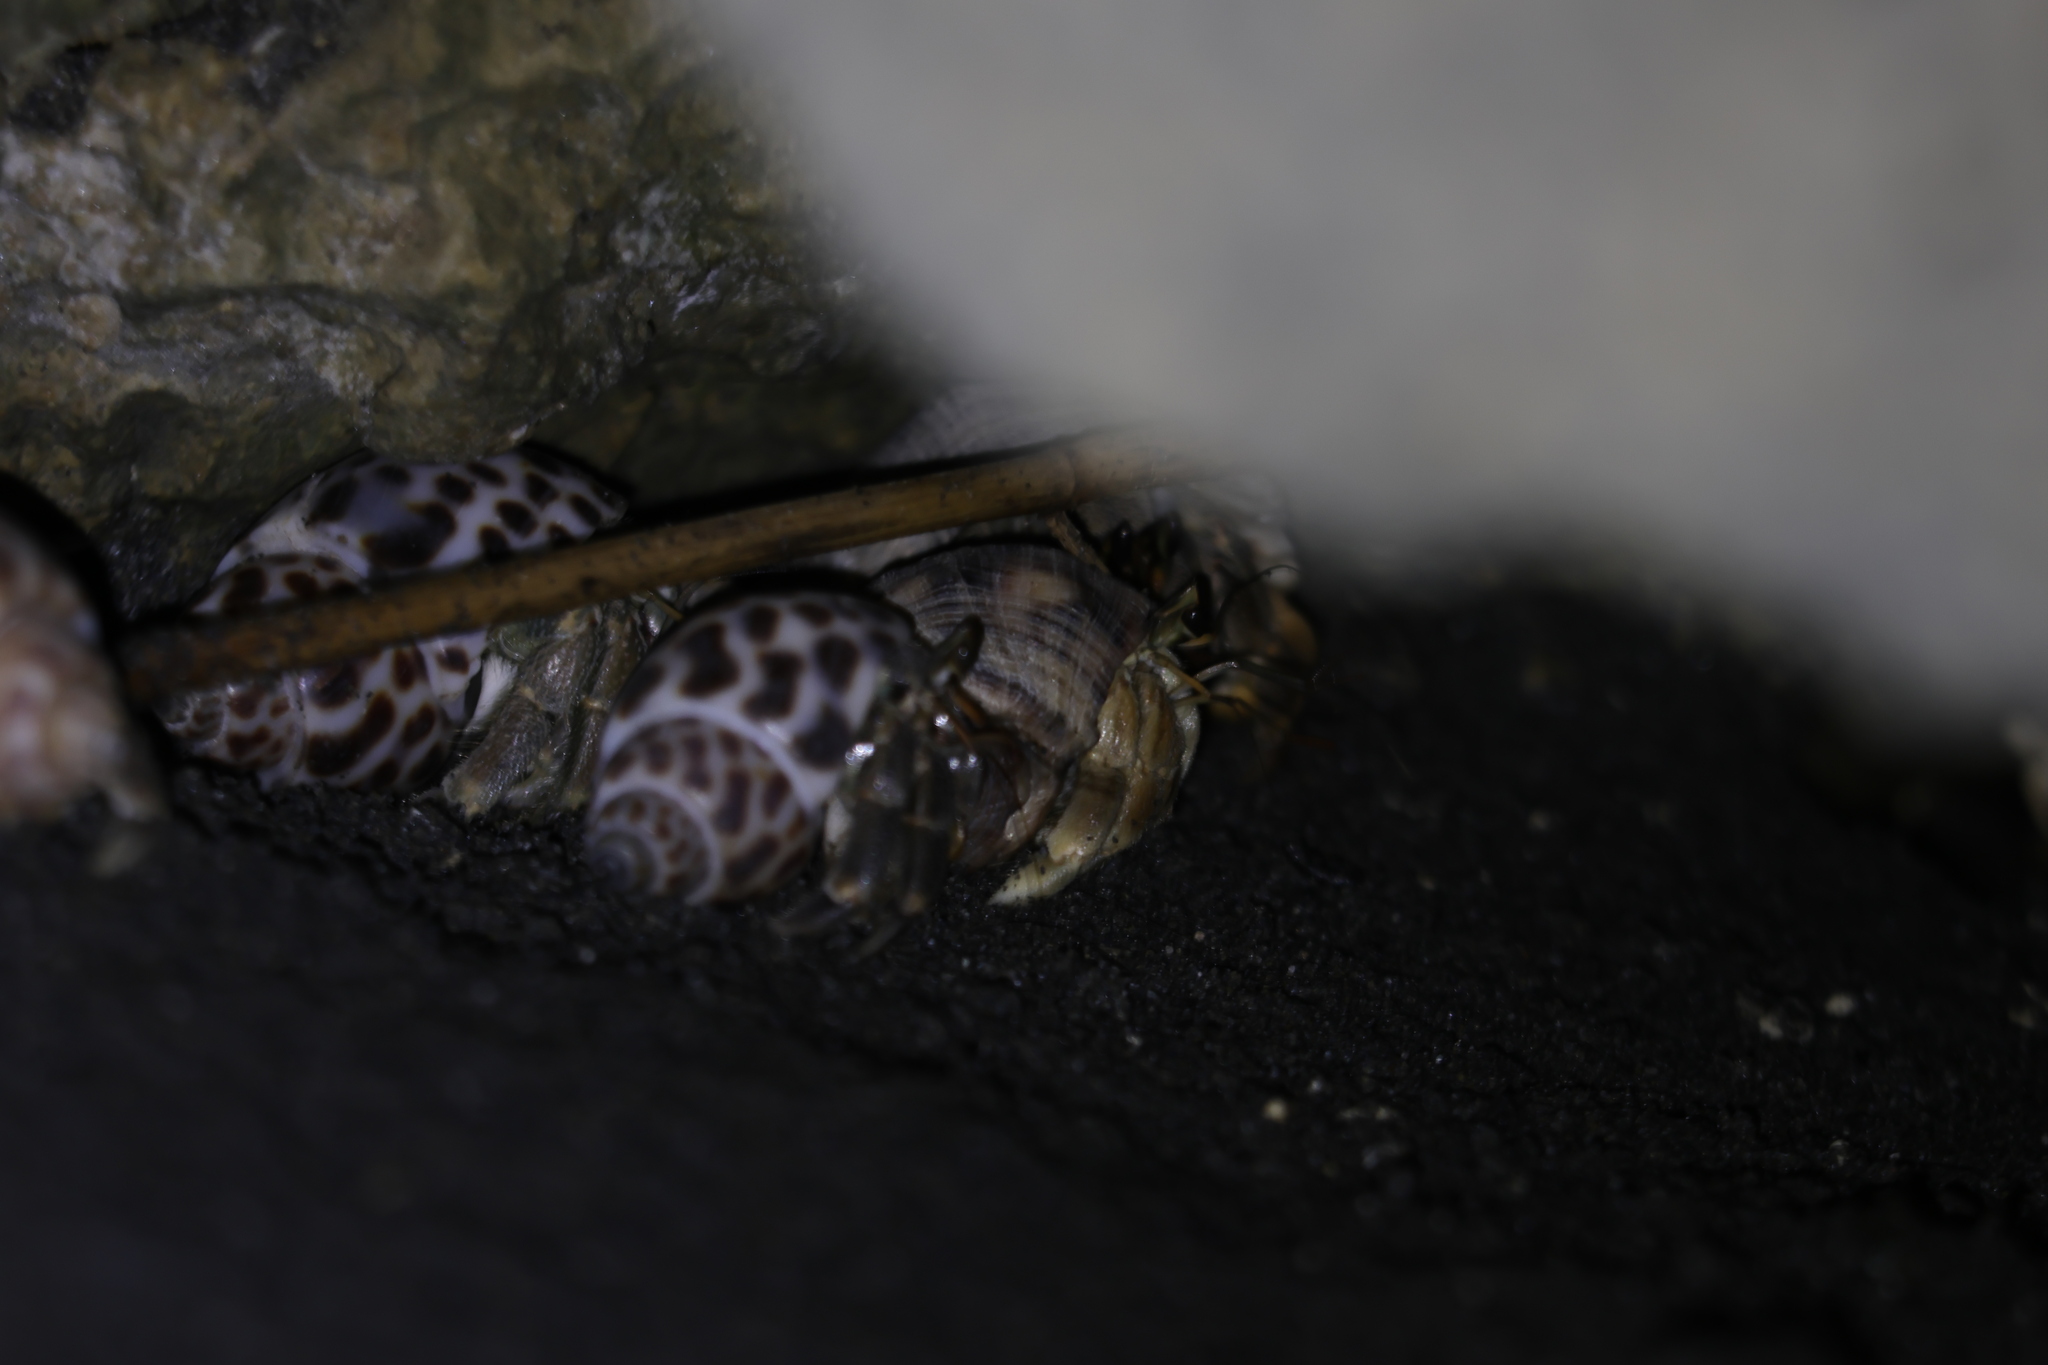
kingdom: Animalia
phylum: Arthropoda
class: Malacostraca
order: Decapoda
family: Coenobitidae
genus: Coenobita
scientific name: Coenobita rugosus
